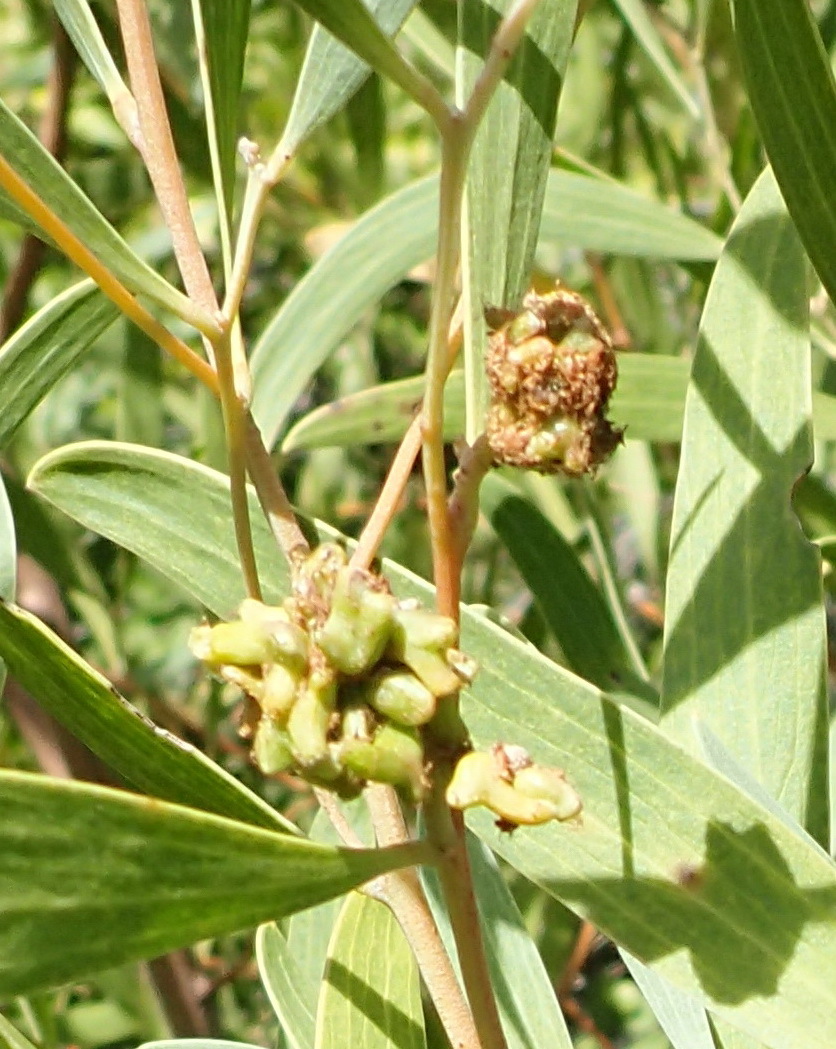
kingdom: Animalia
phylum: Arthropoda
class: Insecta
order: Diptera
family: Cecidomyiidae
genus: Dasineura
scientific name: Dasineura dielsi
